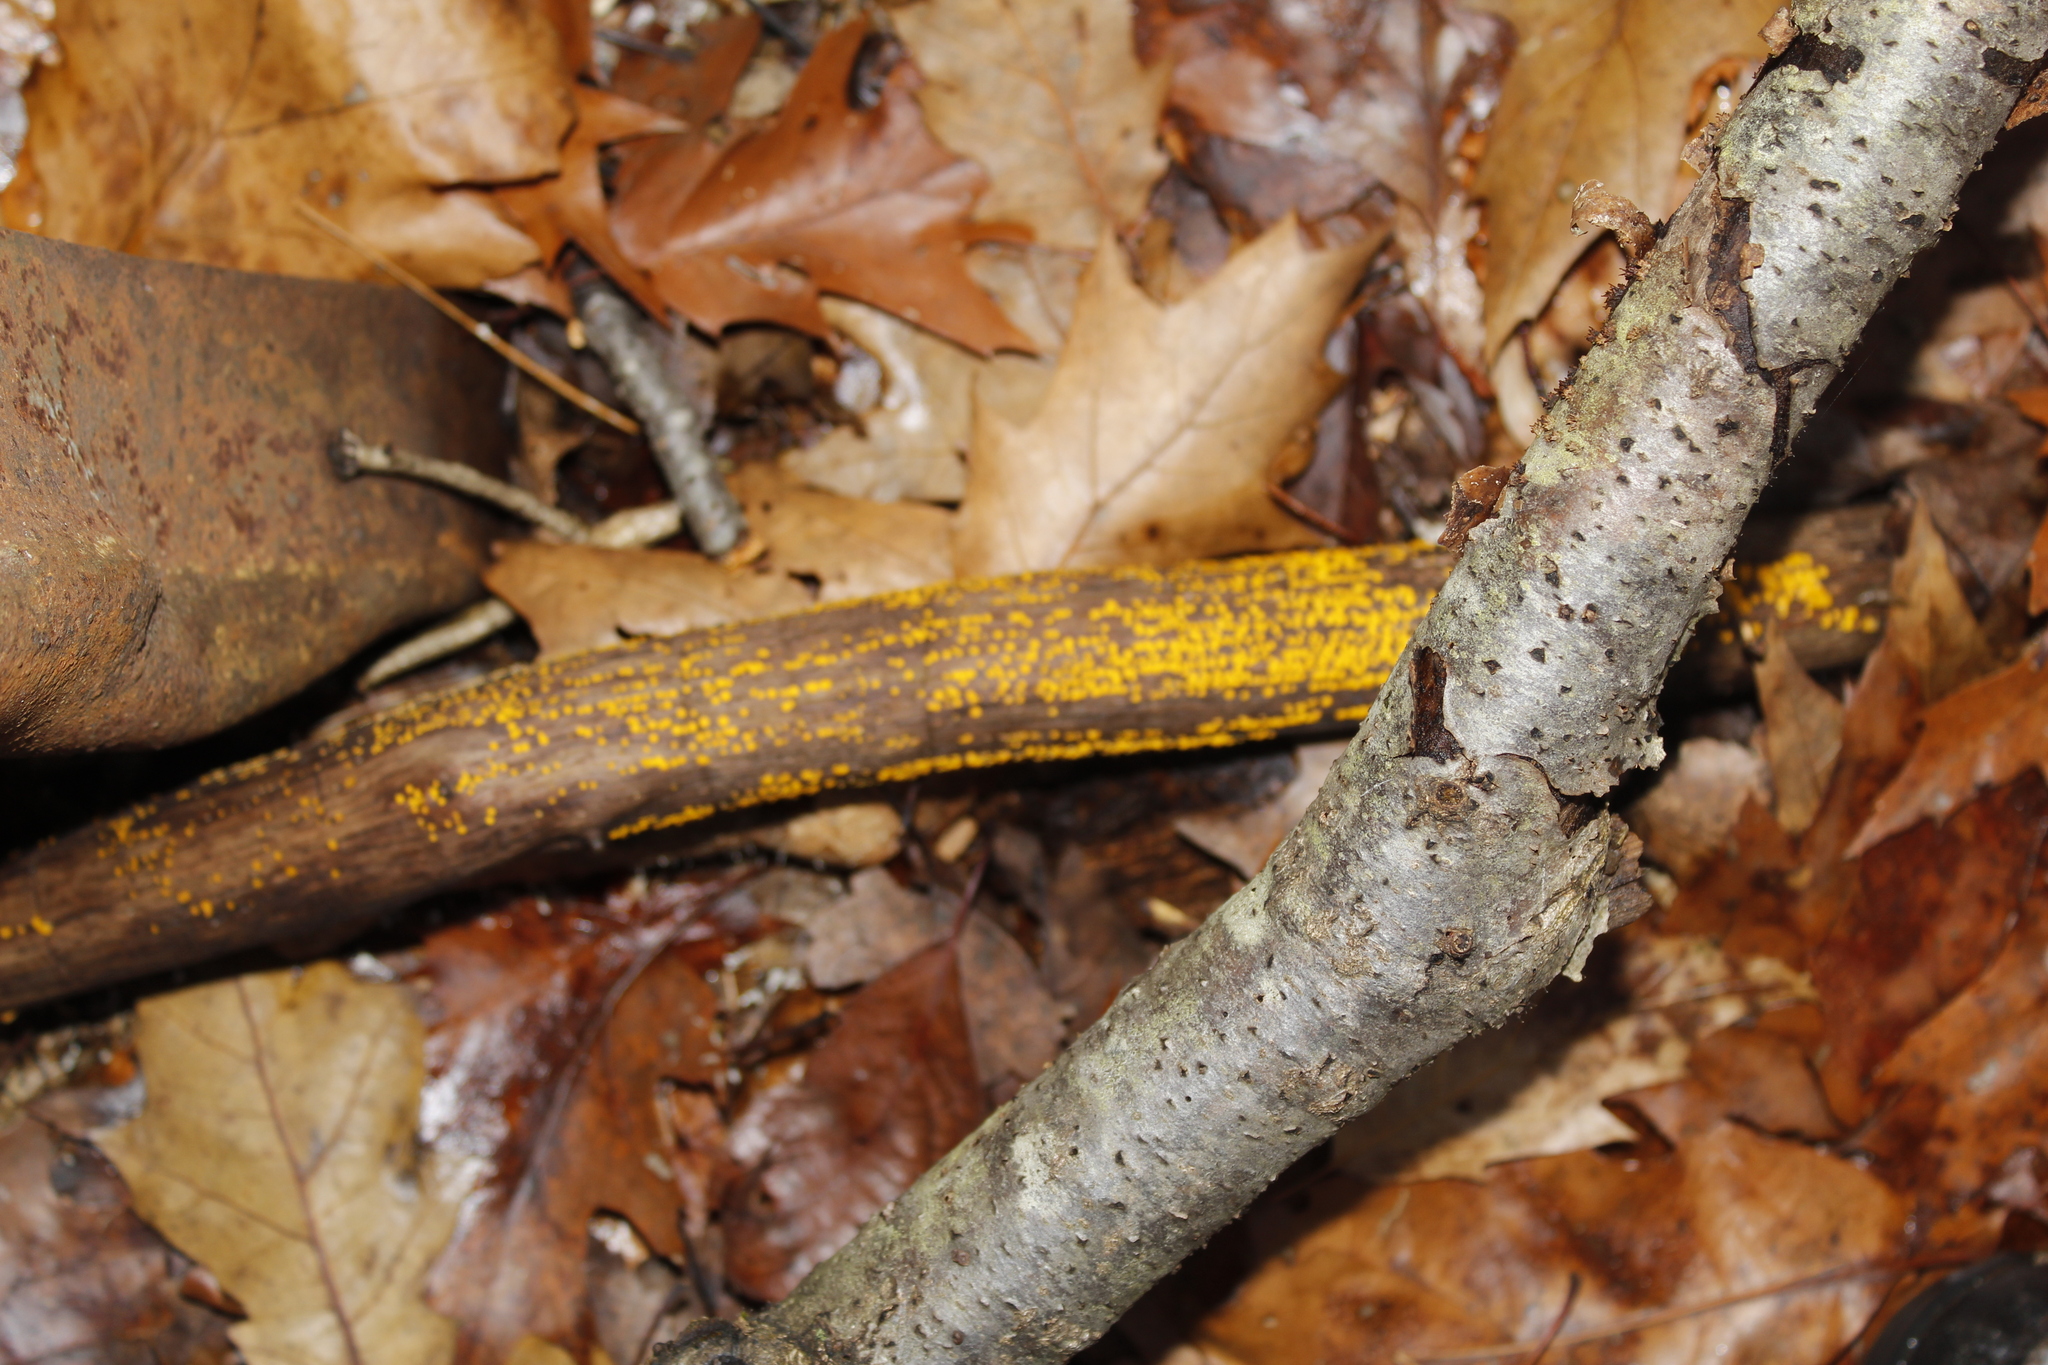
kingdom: Fungi
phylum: Ascomycota
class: Leotiomycetes
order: Helotiales
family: Pezizellaceae
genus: Calycina
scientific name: Calycina citrina
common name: Yellow fairy cups
